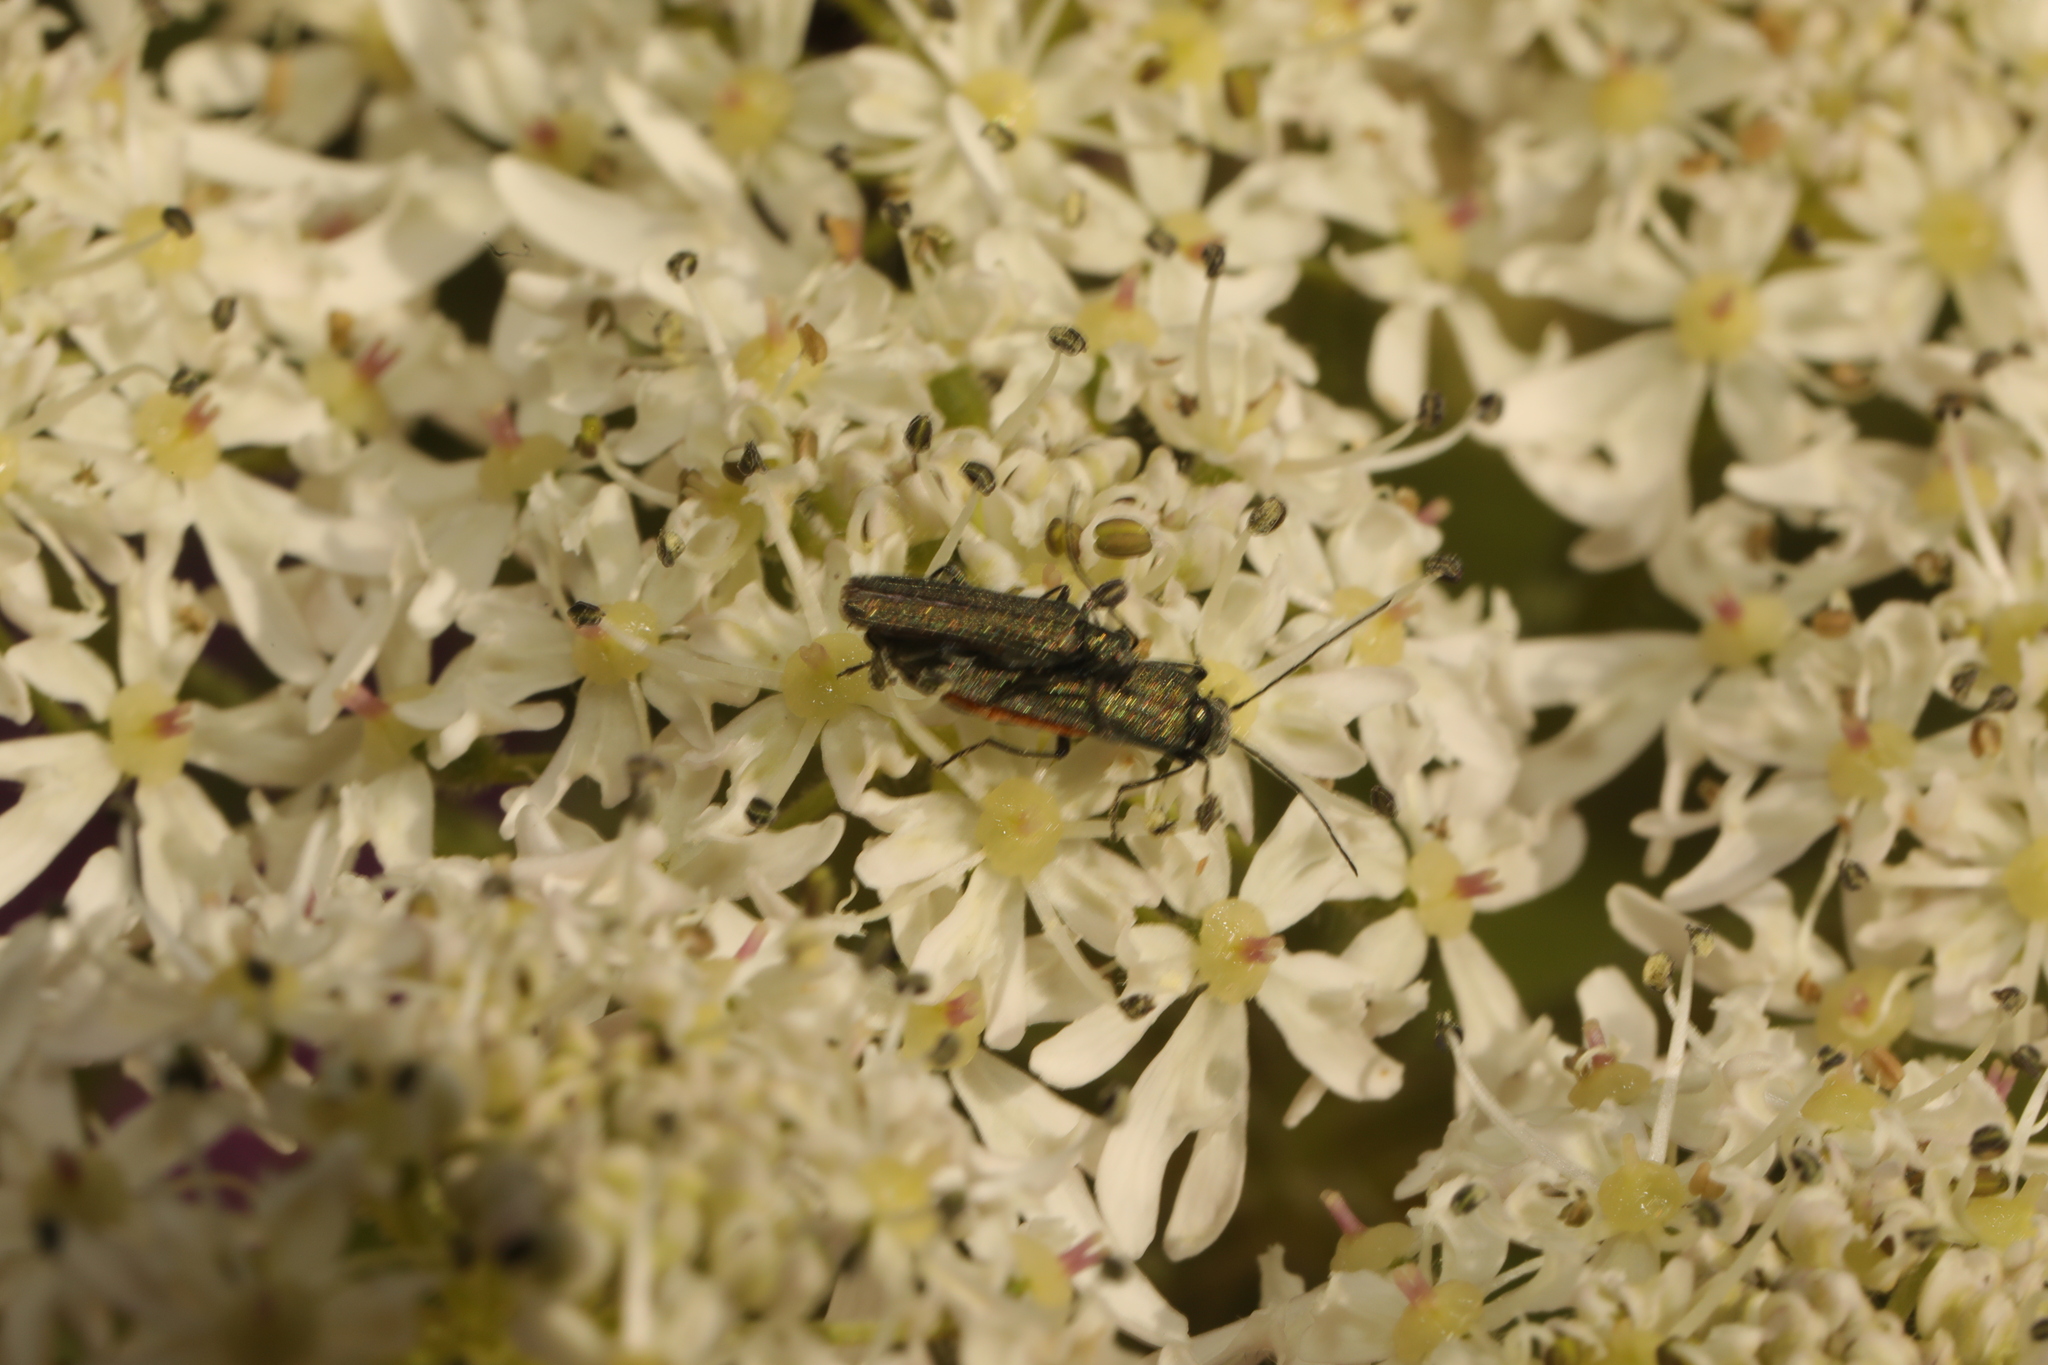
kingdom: Animalia
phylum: Arthropoda
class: Insecta
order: Coleoptera
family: Oedemeridae
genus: Oedemera
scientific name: Oedemera lurida
